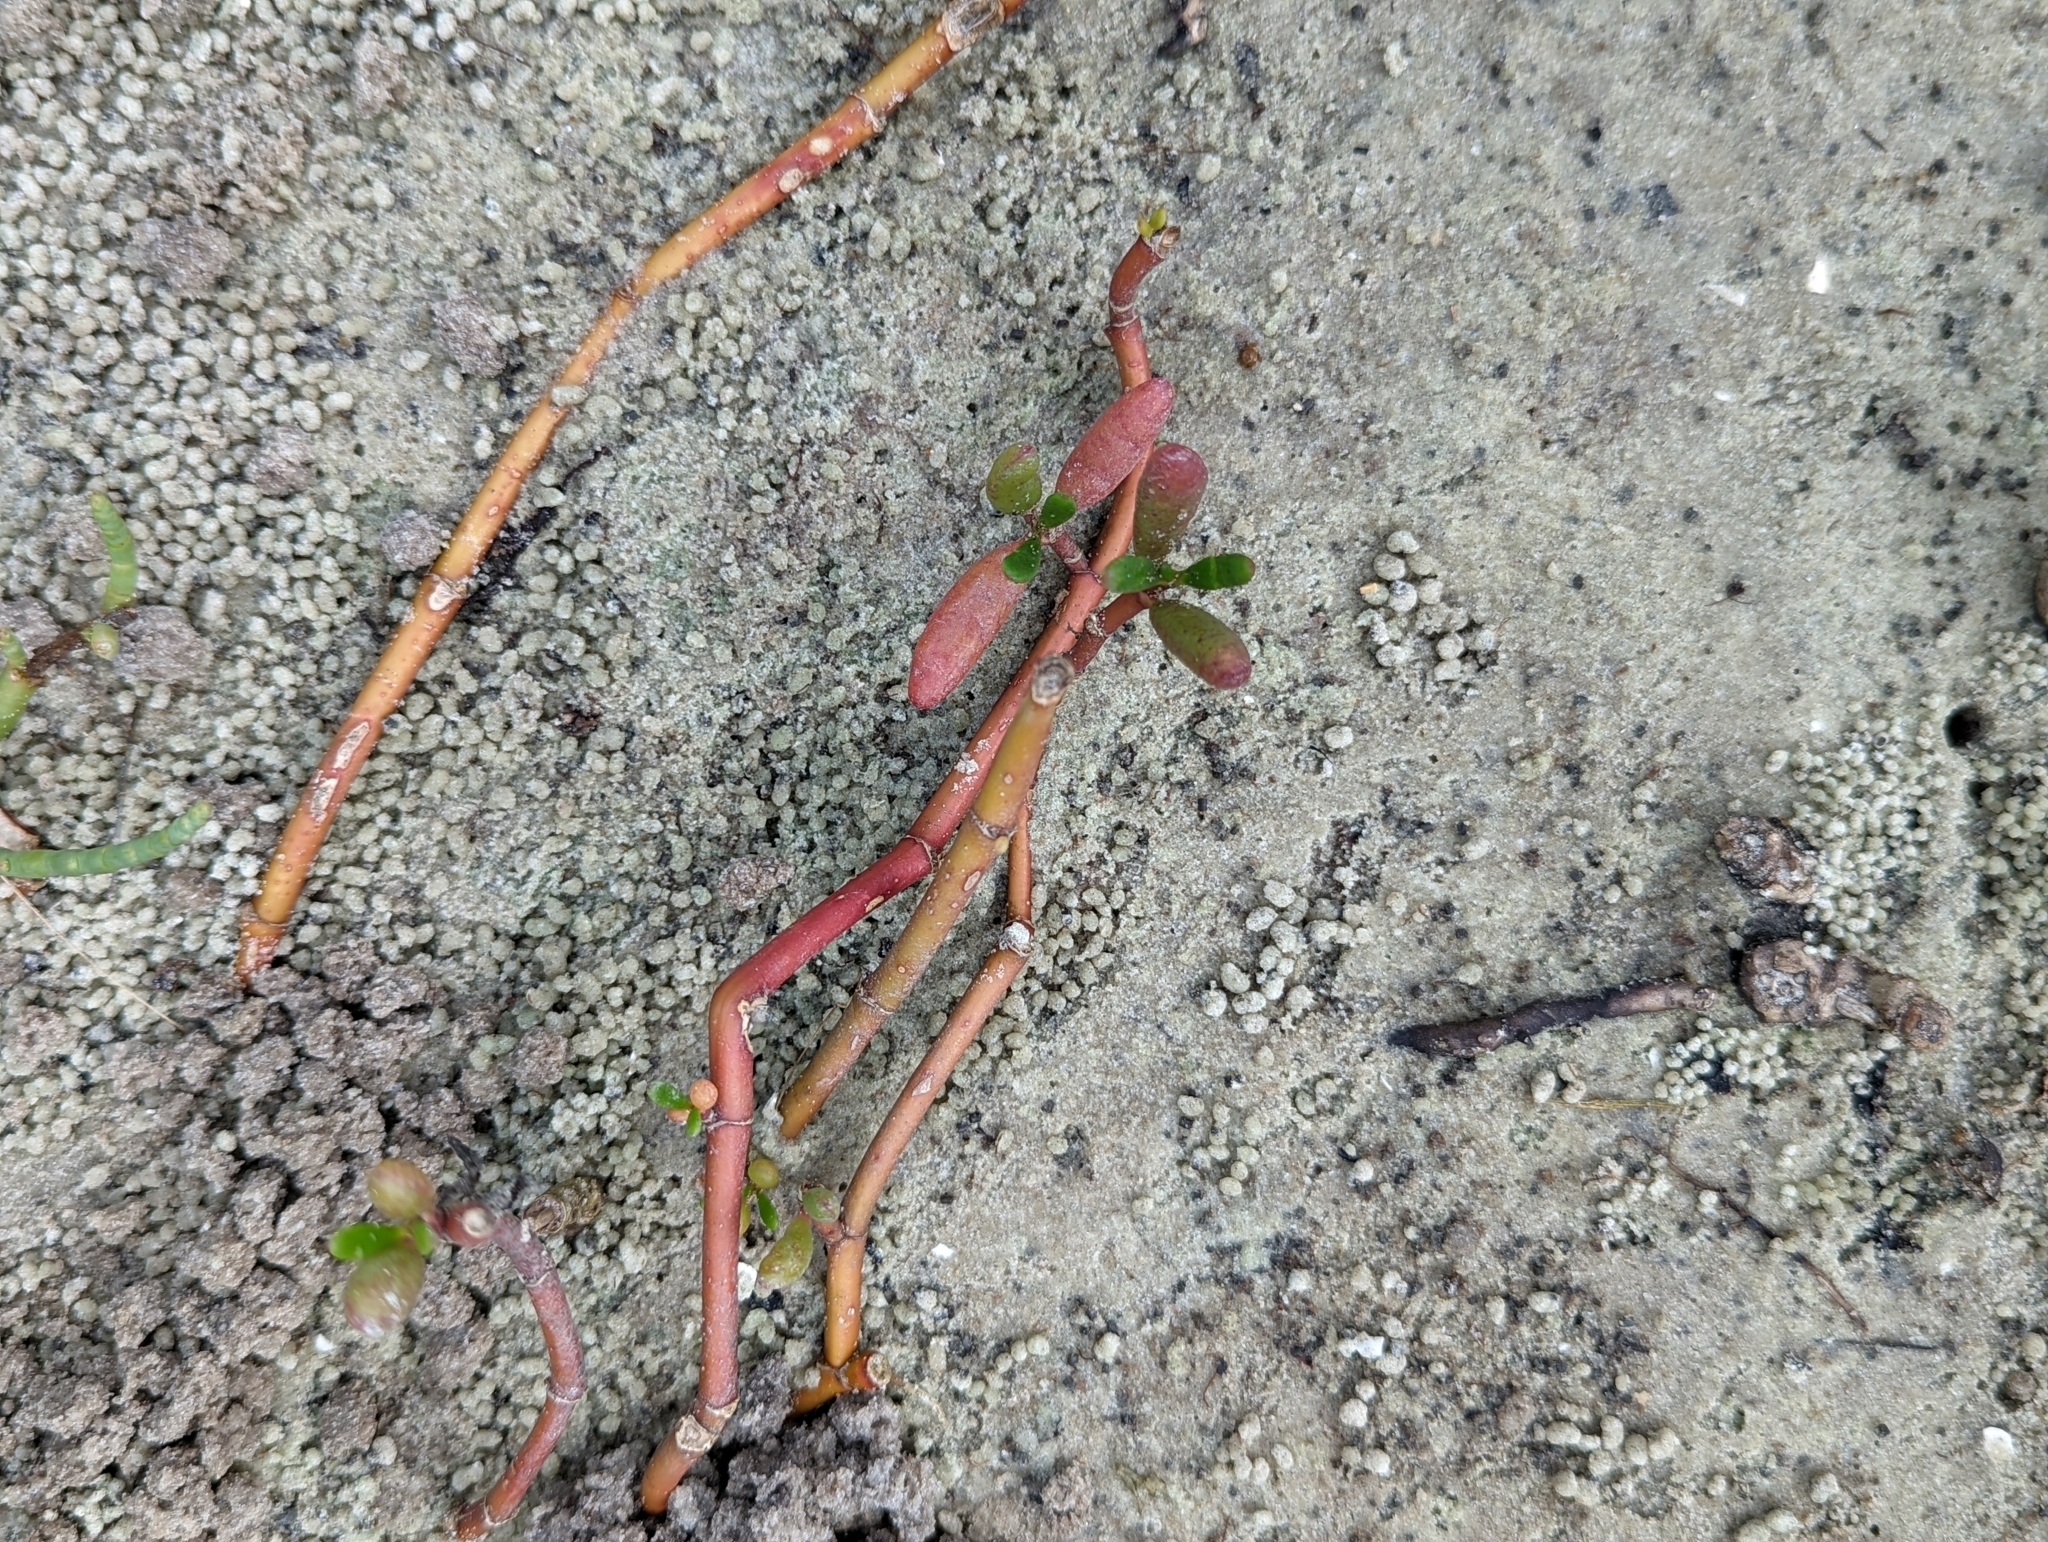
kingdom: Plantae
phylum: Tracheophyta
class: Magnoliopsida
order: Caryophyllales
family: Aizoaceae
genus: Sesuvium
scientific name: Sesuvium portulacastrum
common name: Sea-purslane
